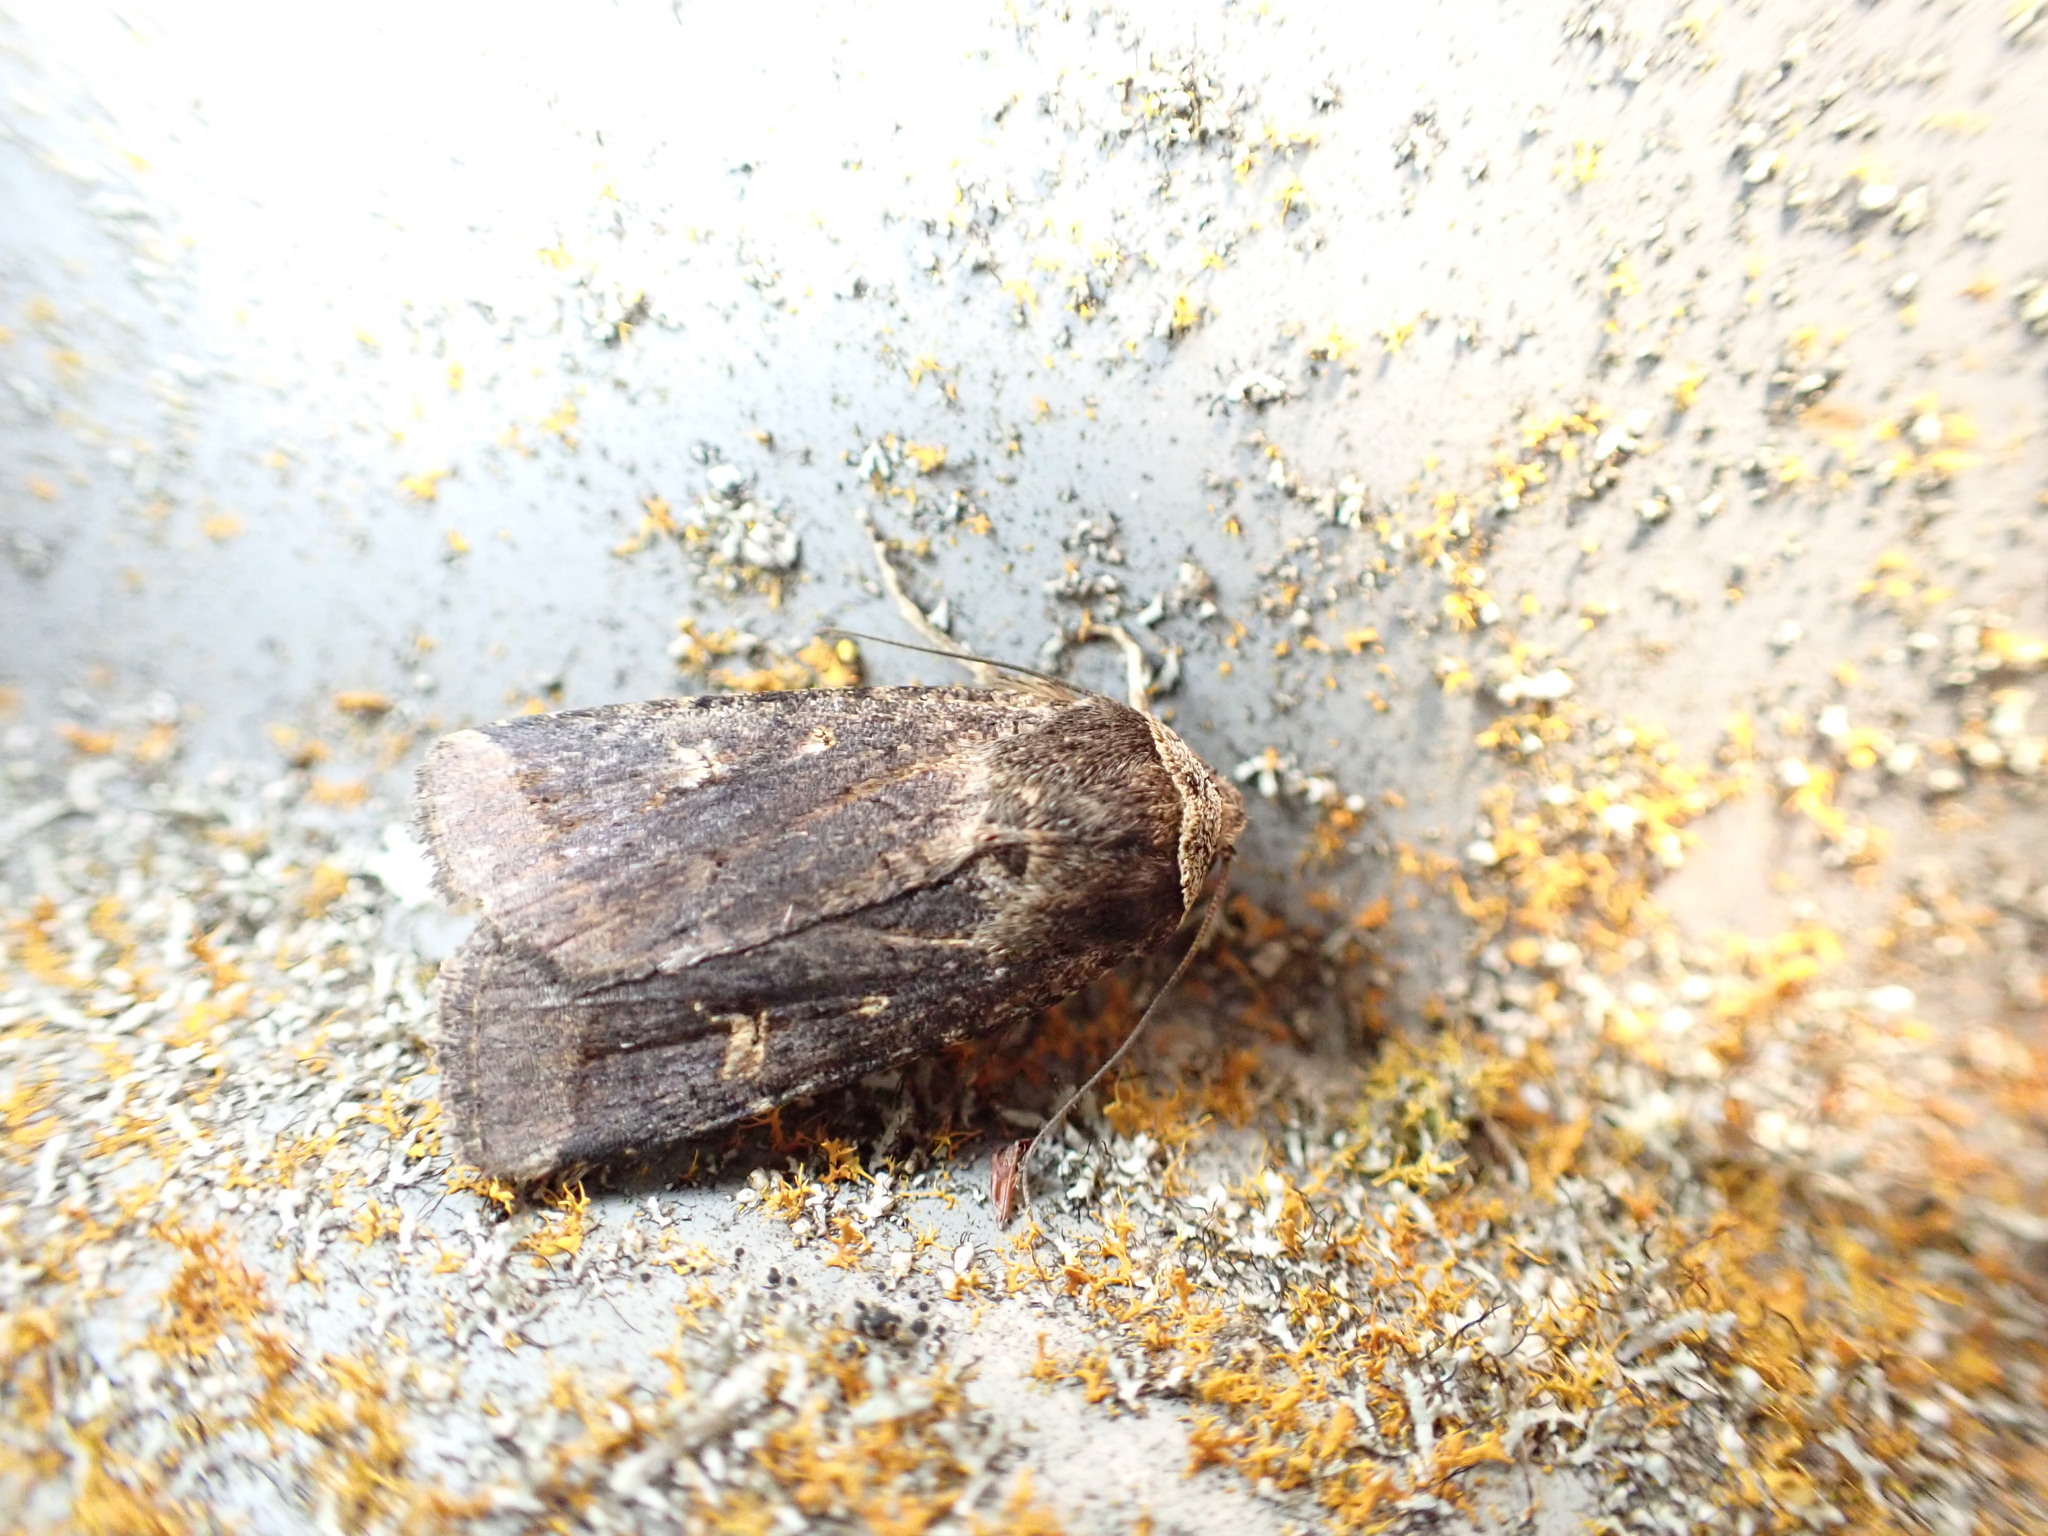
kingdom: Animalia
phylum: Arthropoda
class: Insecta
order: Lepidoptera
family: Noctuidae
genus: Proteuxoa
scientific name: Proteuxoa tetronycha
